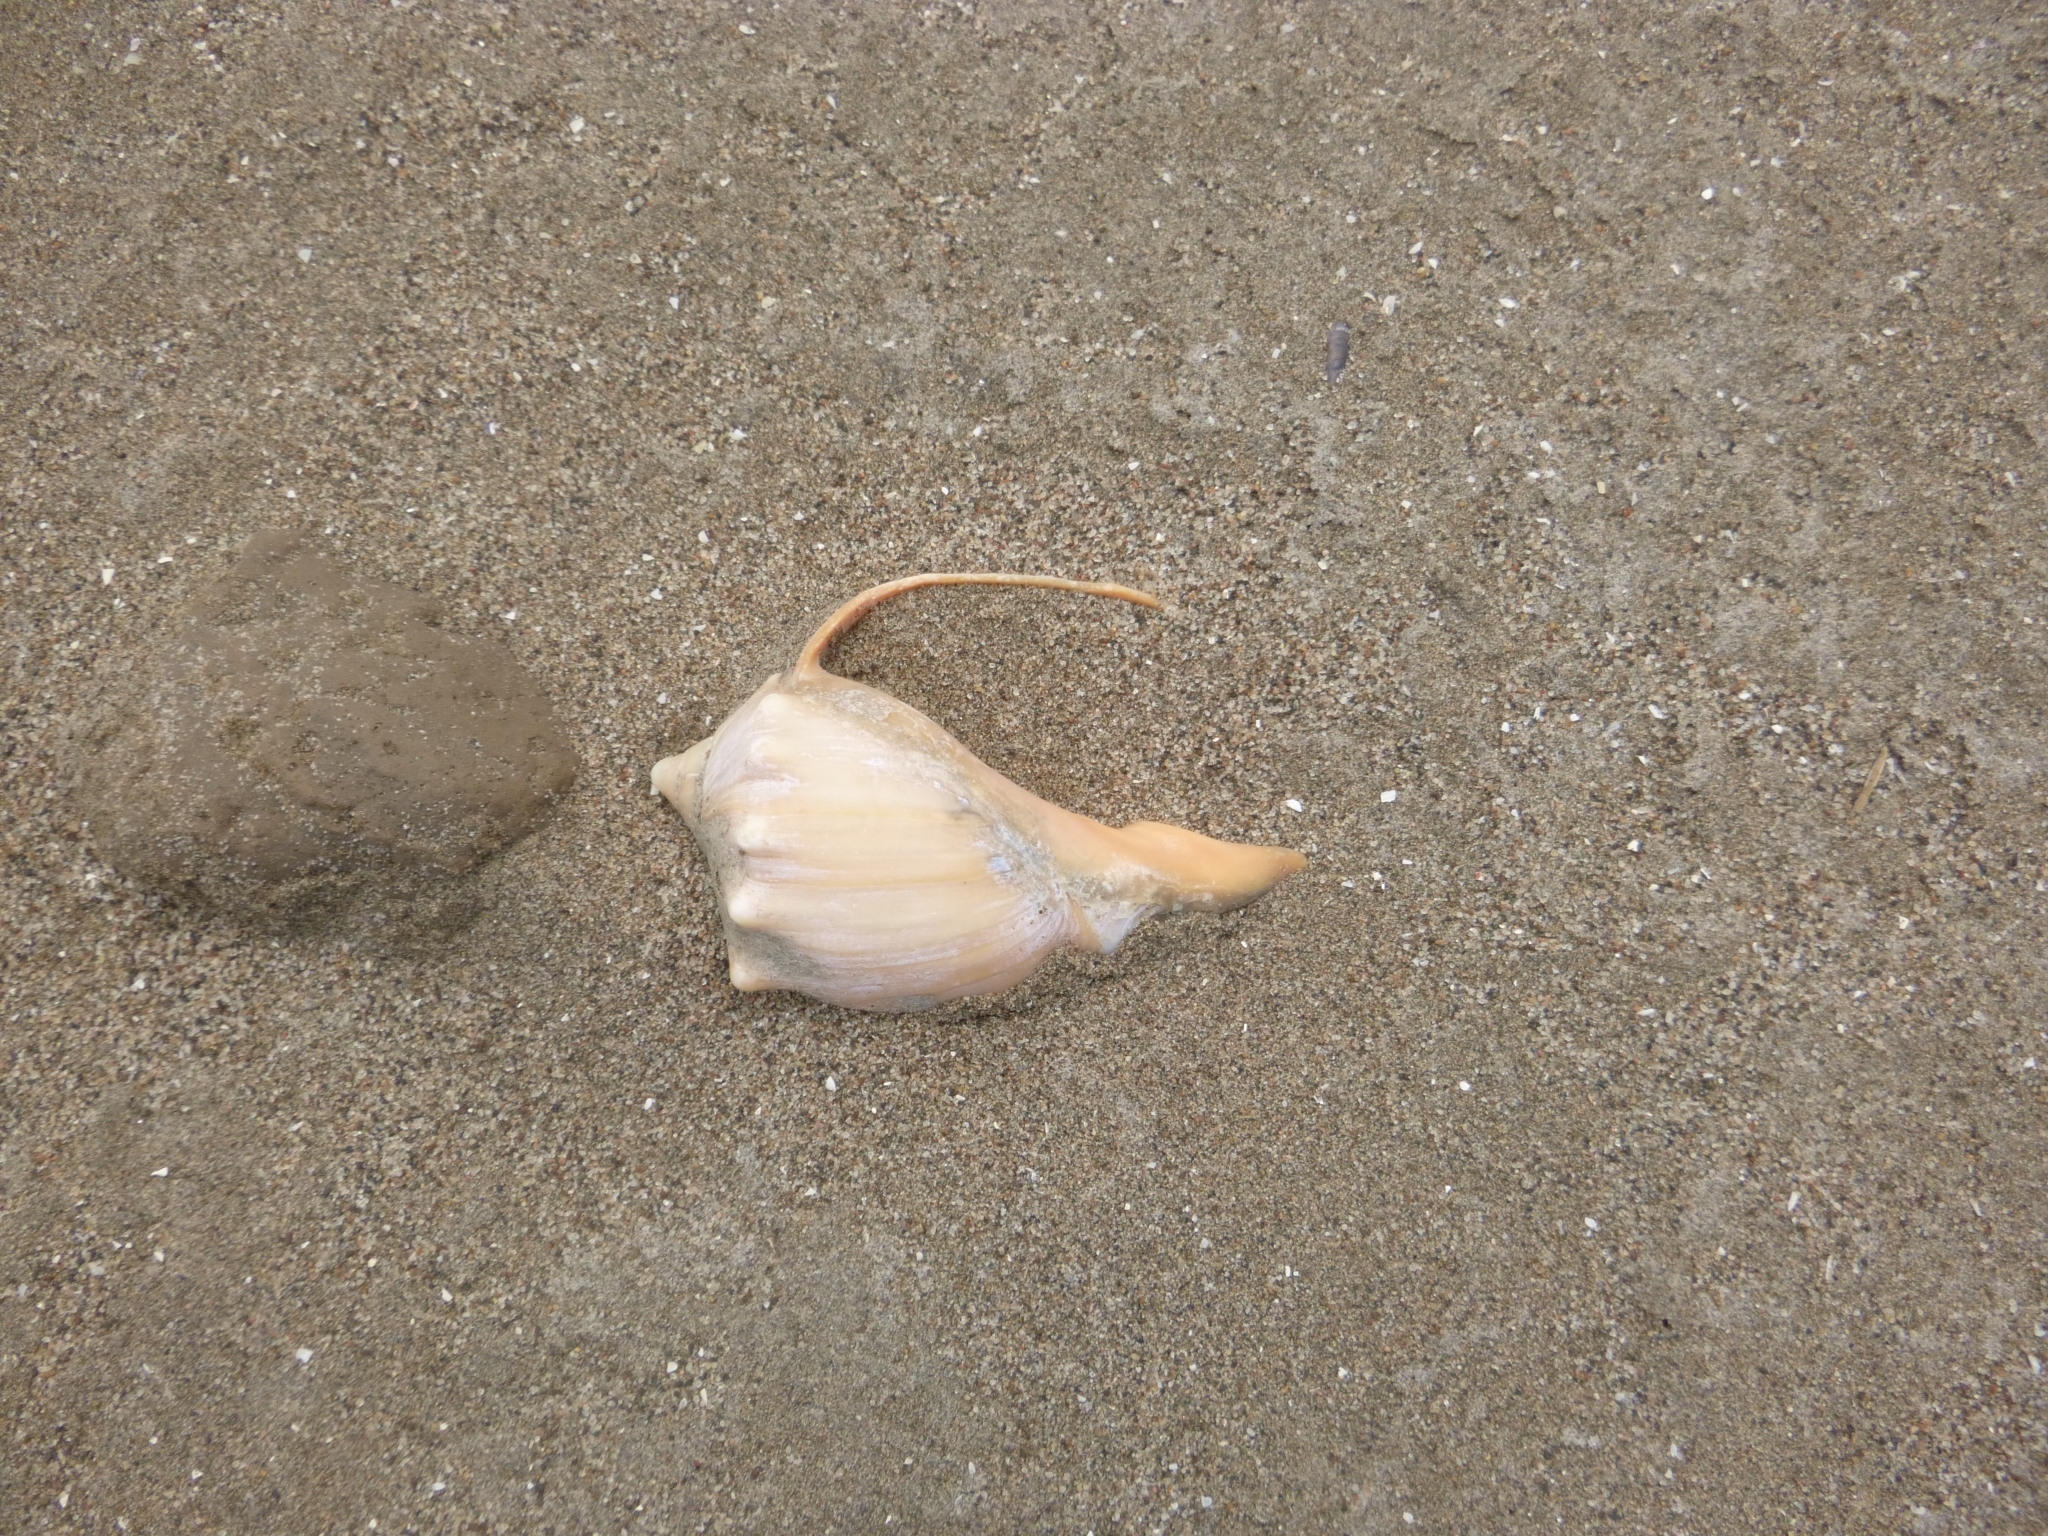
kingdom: Animalia
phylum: Mollusca
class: Gastropoda
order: Neogastropoda
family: Volutidae
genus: Pachycymbiola
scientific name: Pachycymbiola brasiliana
